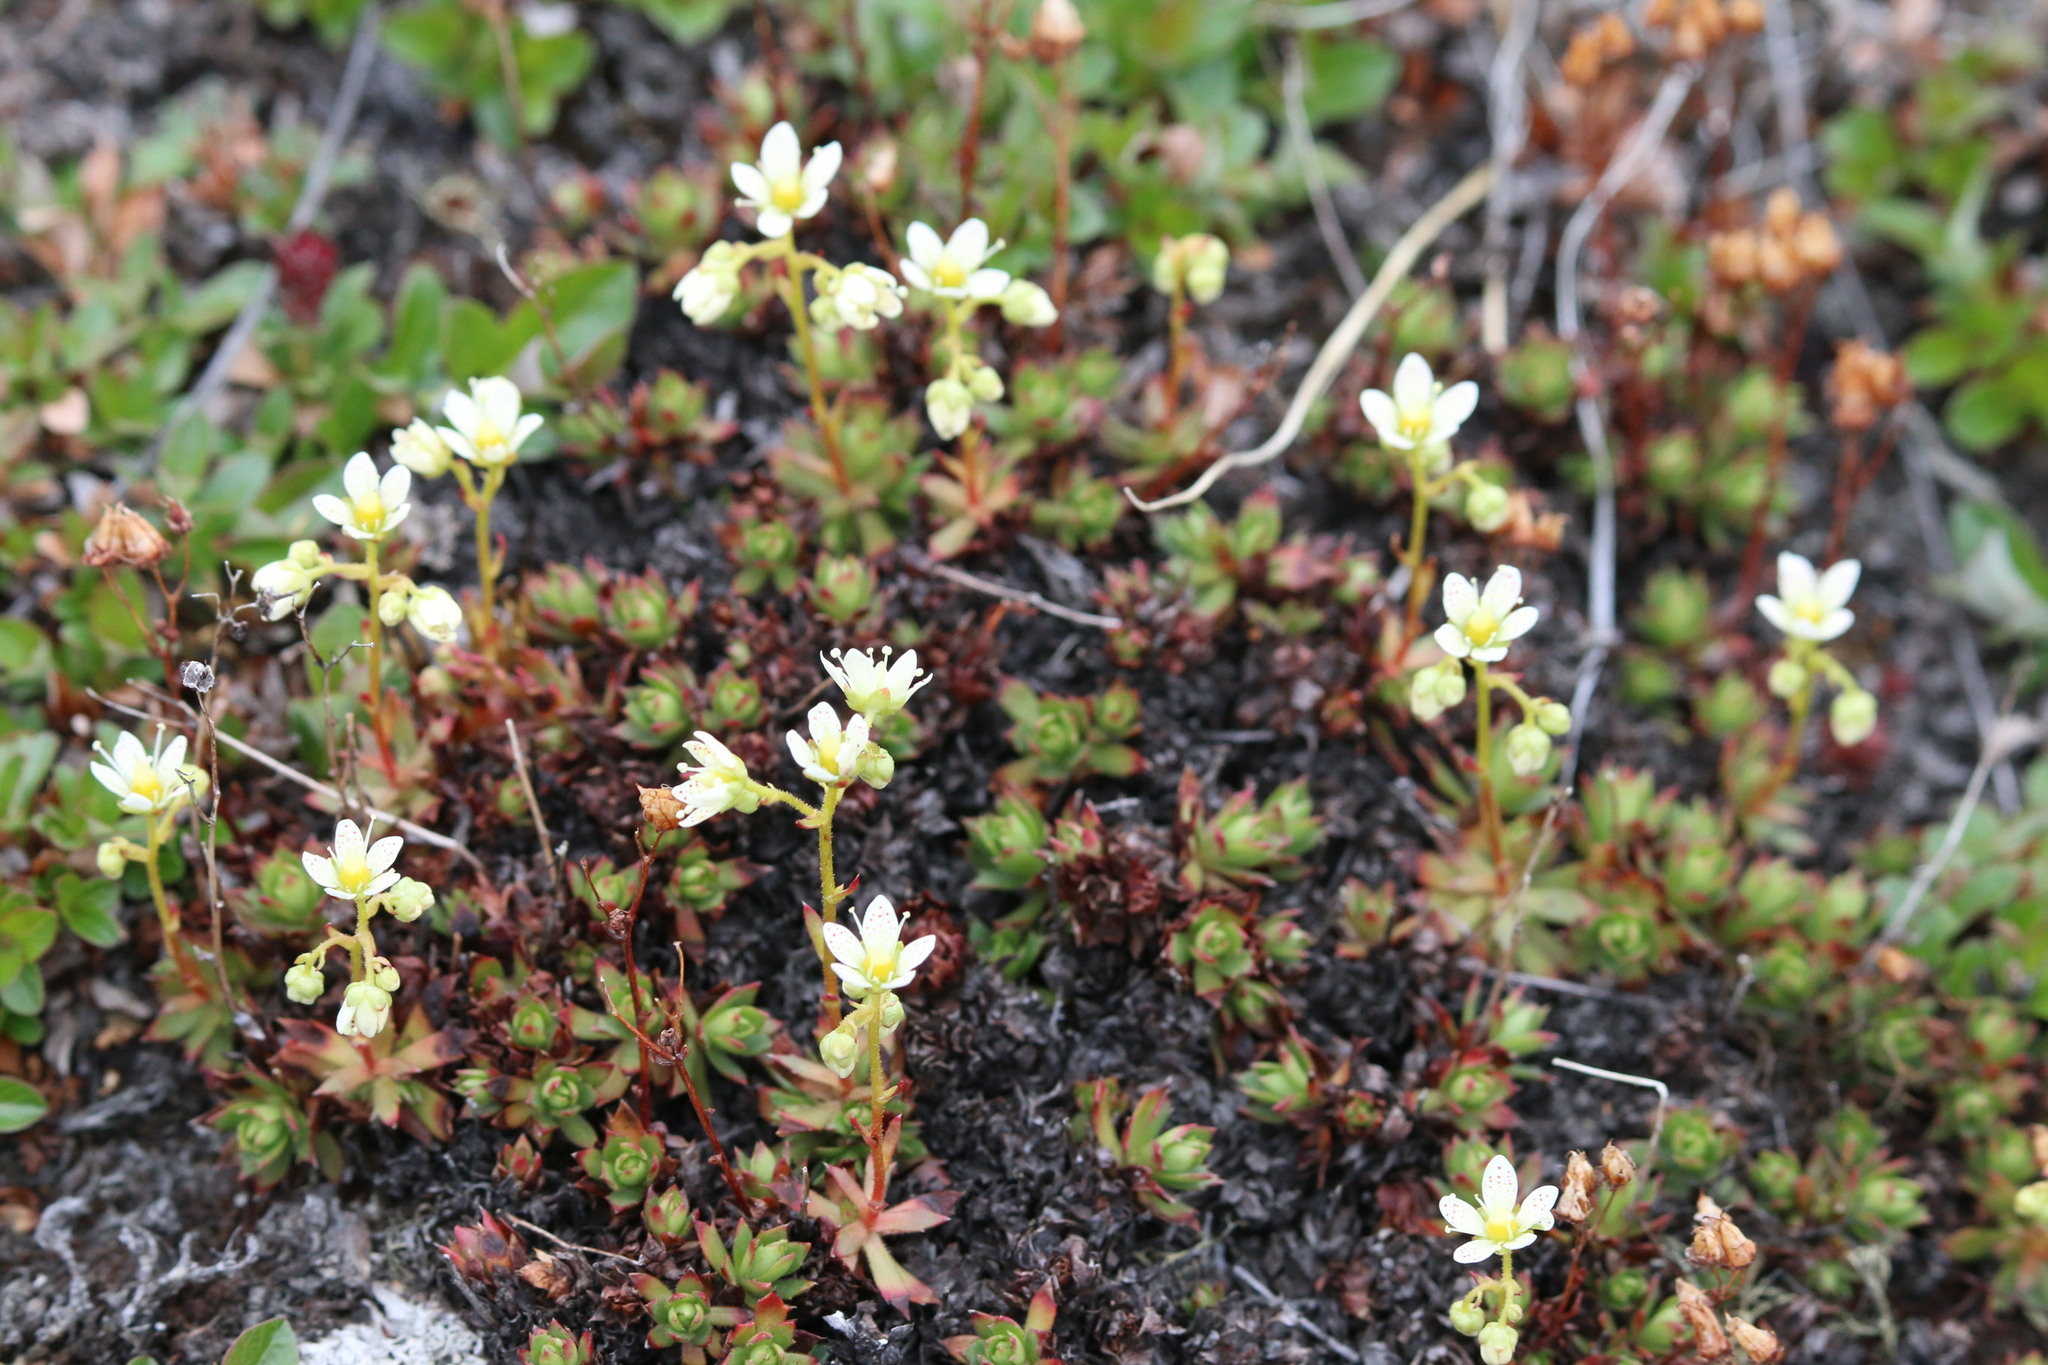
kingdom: Plantae
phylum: Tracheophyta
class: Magnoliopsida
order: Saxifragales
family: Saxifragaceae
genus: Saxifraga
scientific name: Saxifraga tricuspidata
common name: Prickly saxifrage
